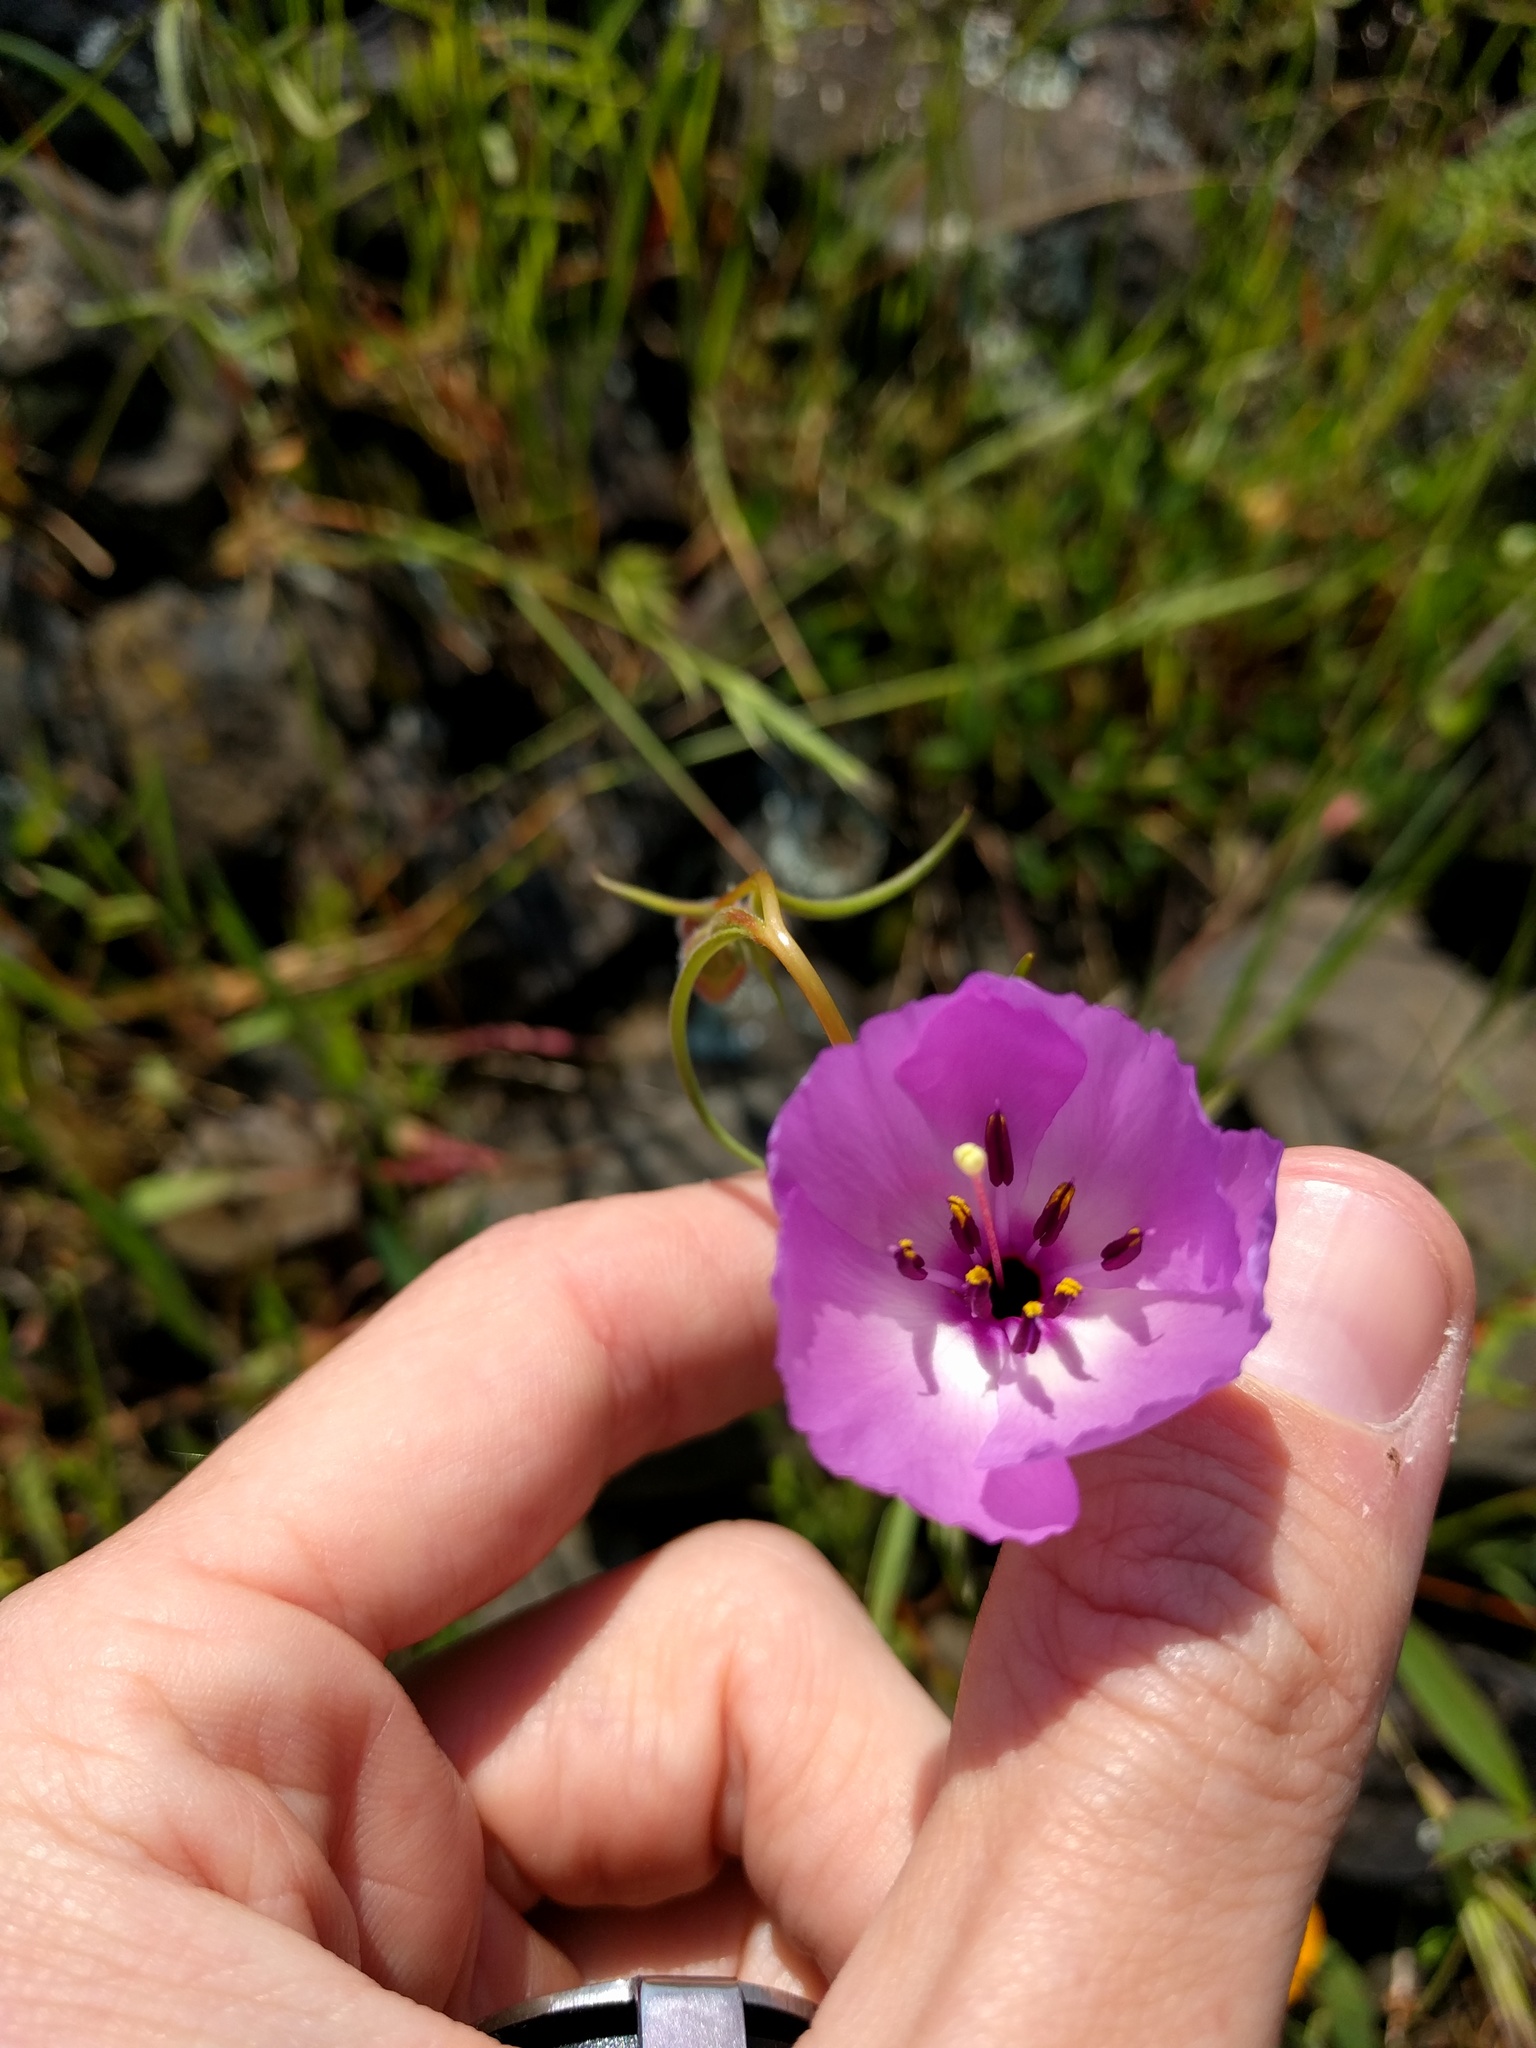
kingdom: Plantae
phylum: Tracheophyta
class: Magnoliopsida
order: Myrtales
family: Onagraceae
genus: Clarkia
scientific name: Clarkia arcuata
